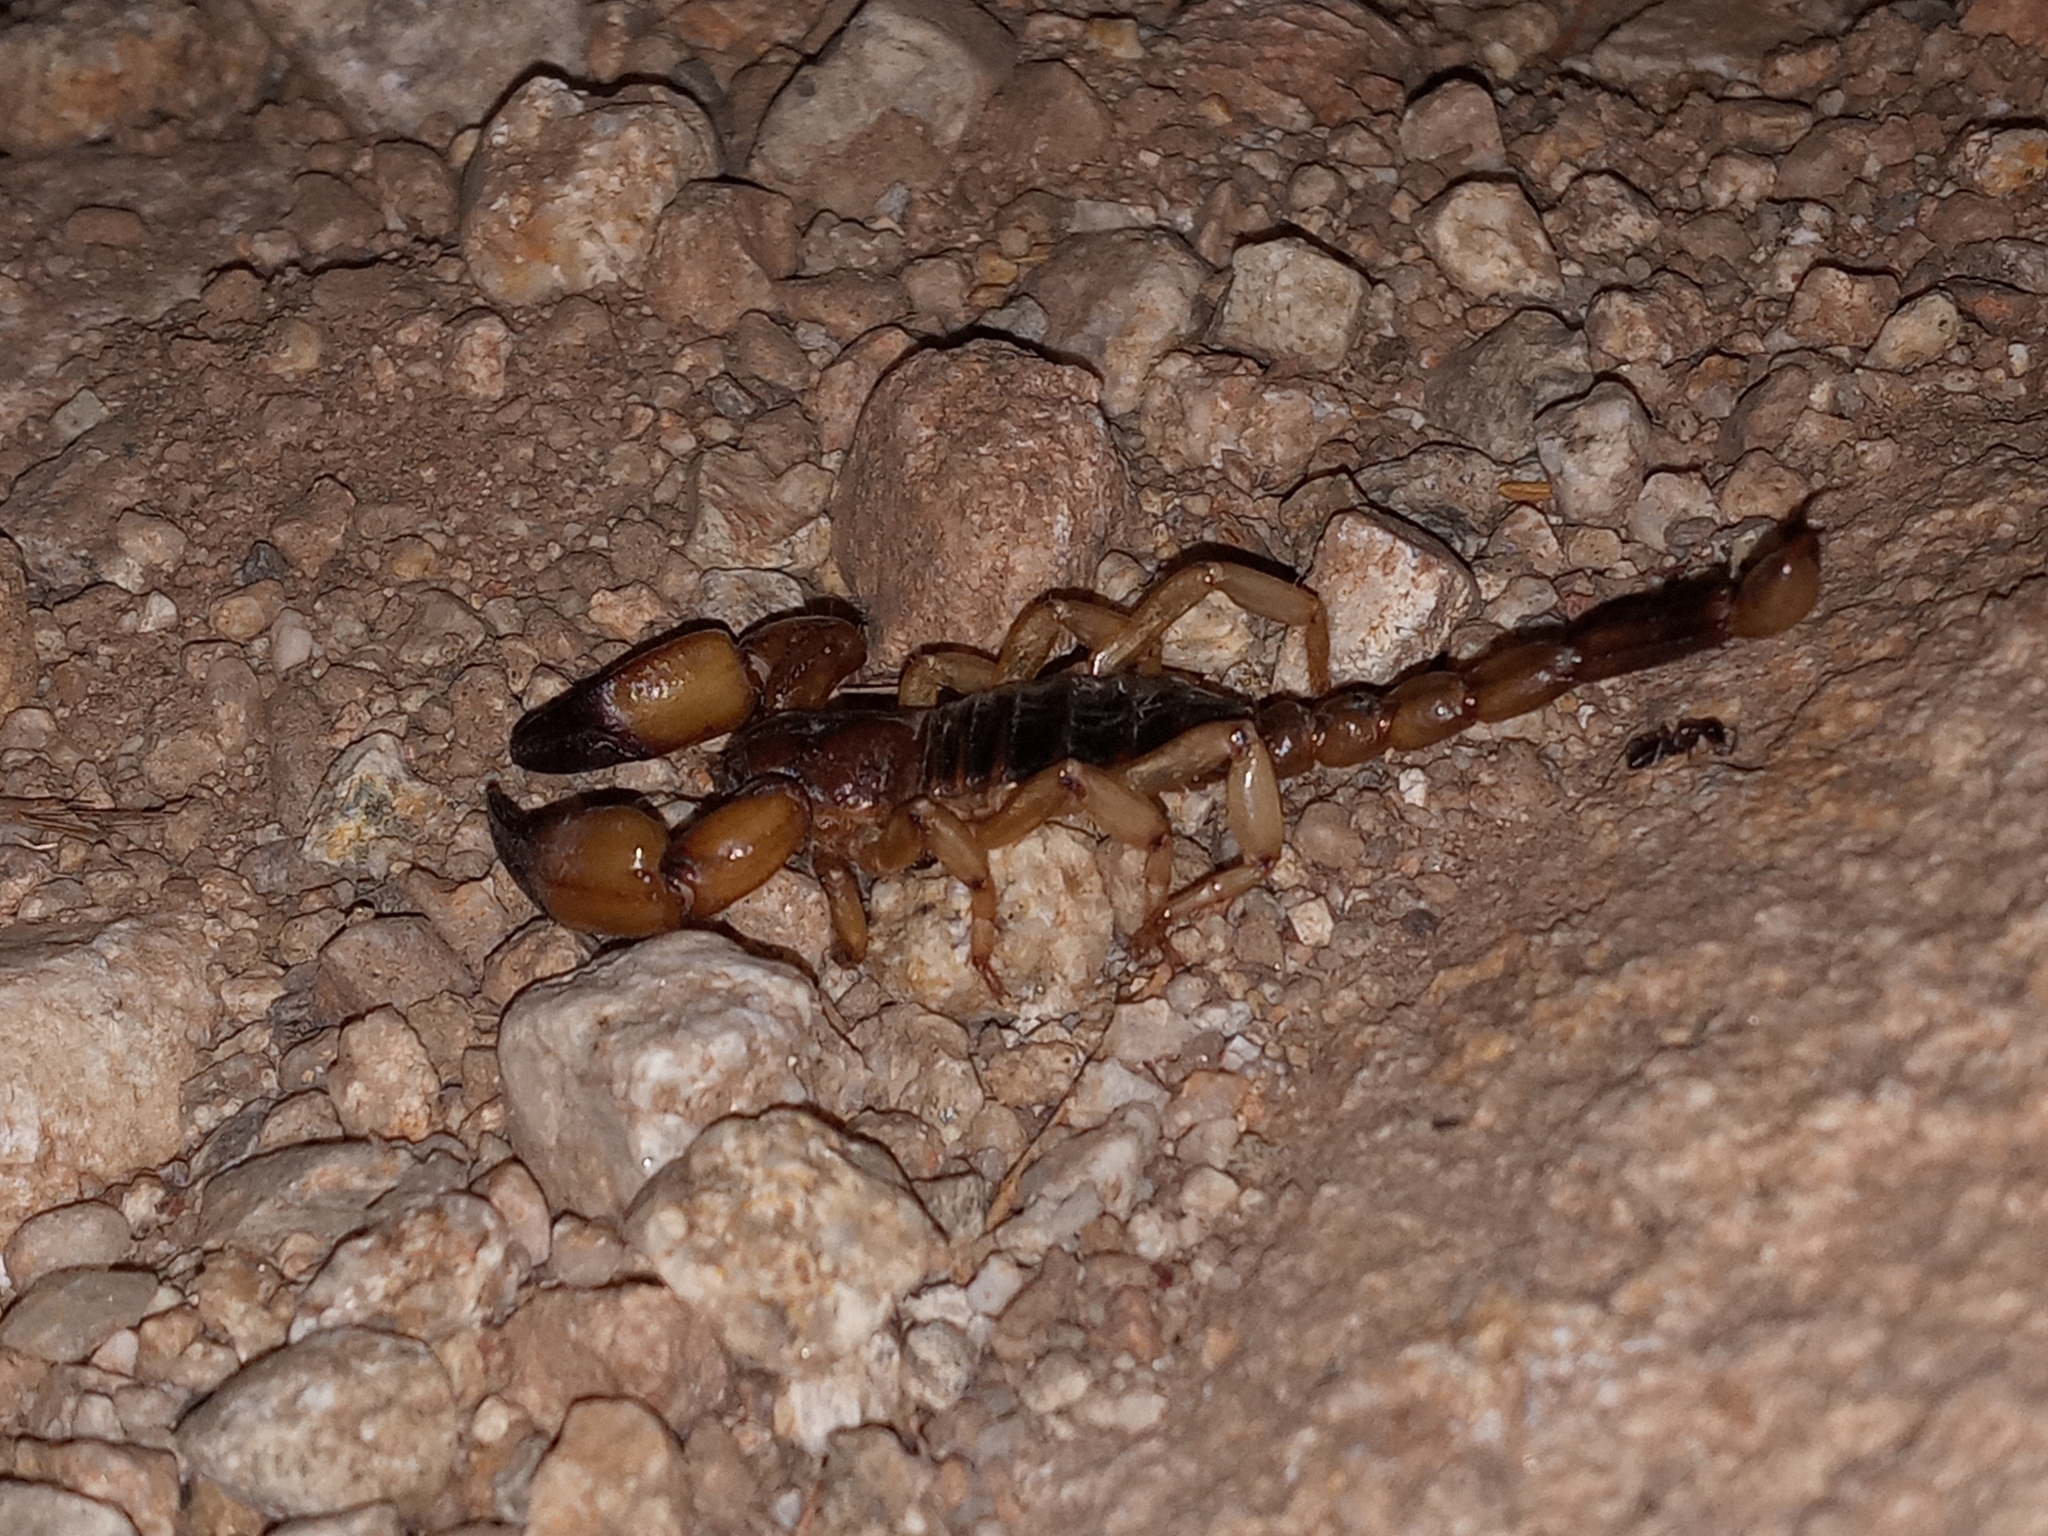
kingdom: Animalia
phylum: Arthropoda
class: Arachnida
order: Scorpiones
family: Chactidae
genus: Anuroctonus
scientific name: Anuroctonus pococki
